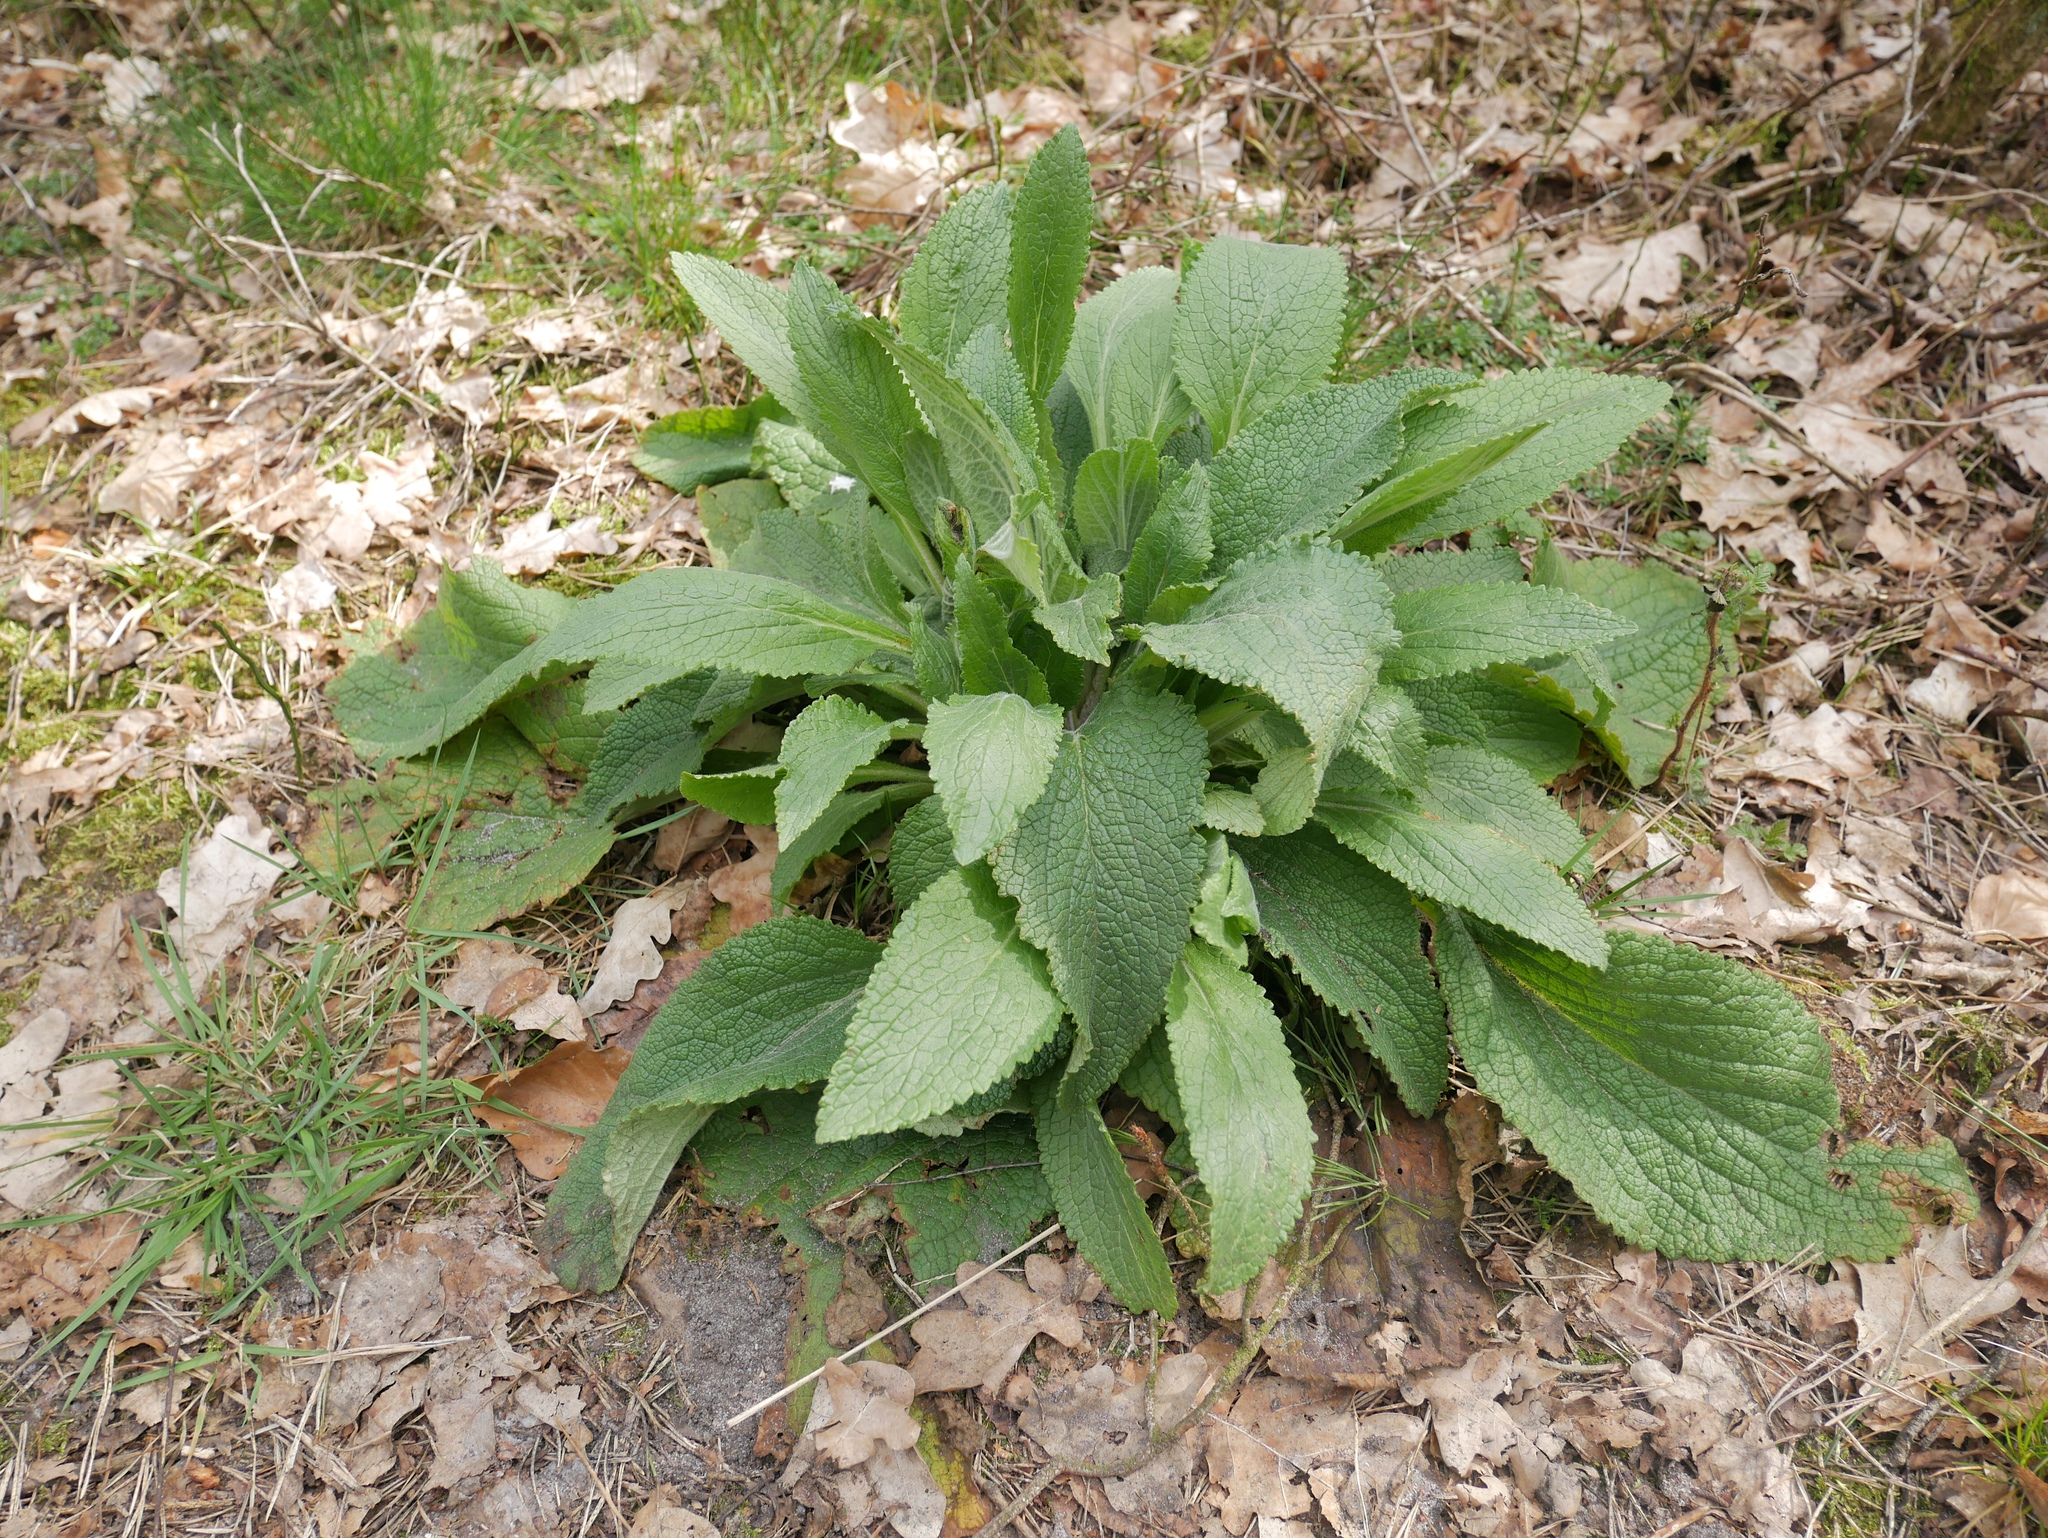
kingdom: Plantae
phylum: Tracheophyta
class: Magnoliopsida
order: Lamiales
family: Plantaginaceae
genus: Digitalis
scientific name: Digitalis purpurea
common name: Foxglove
